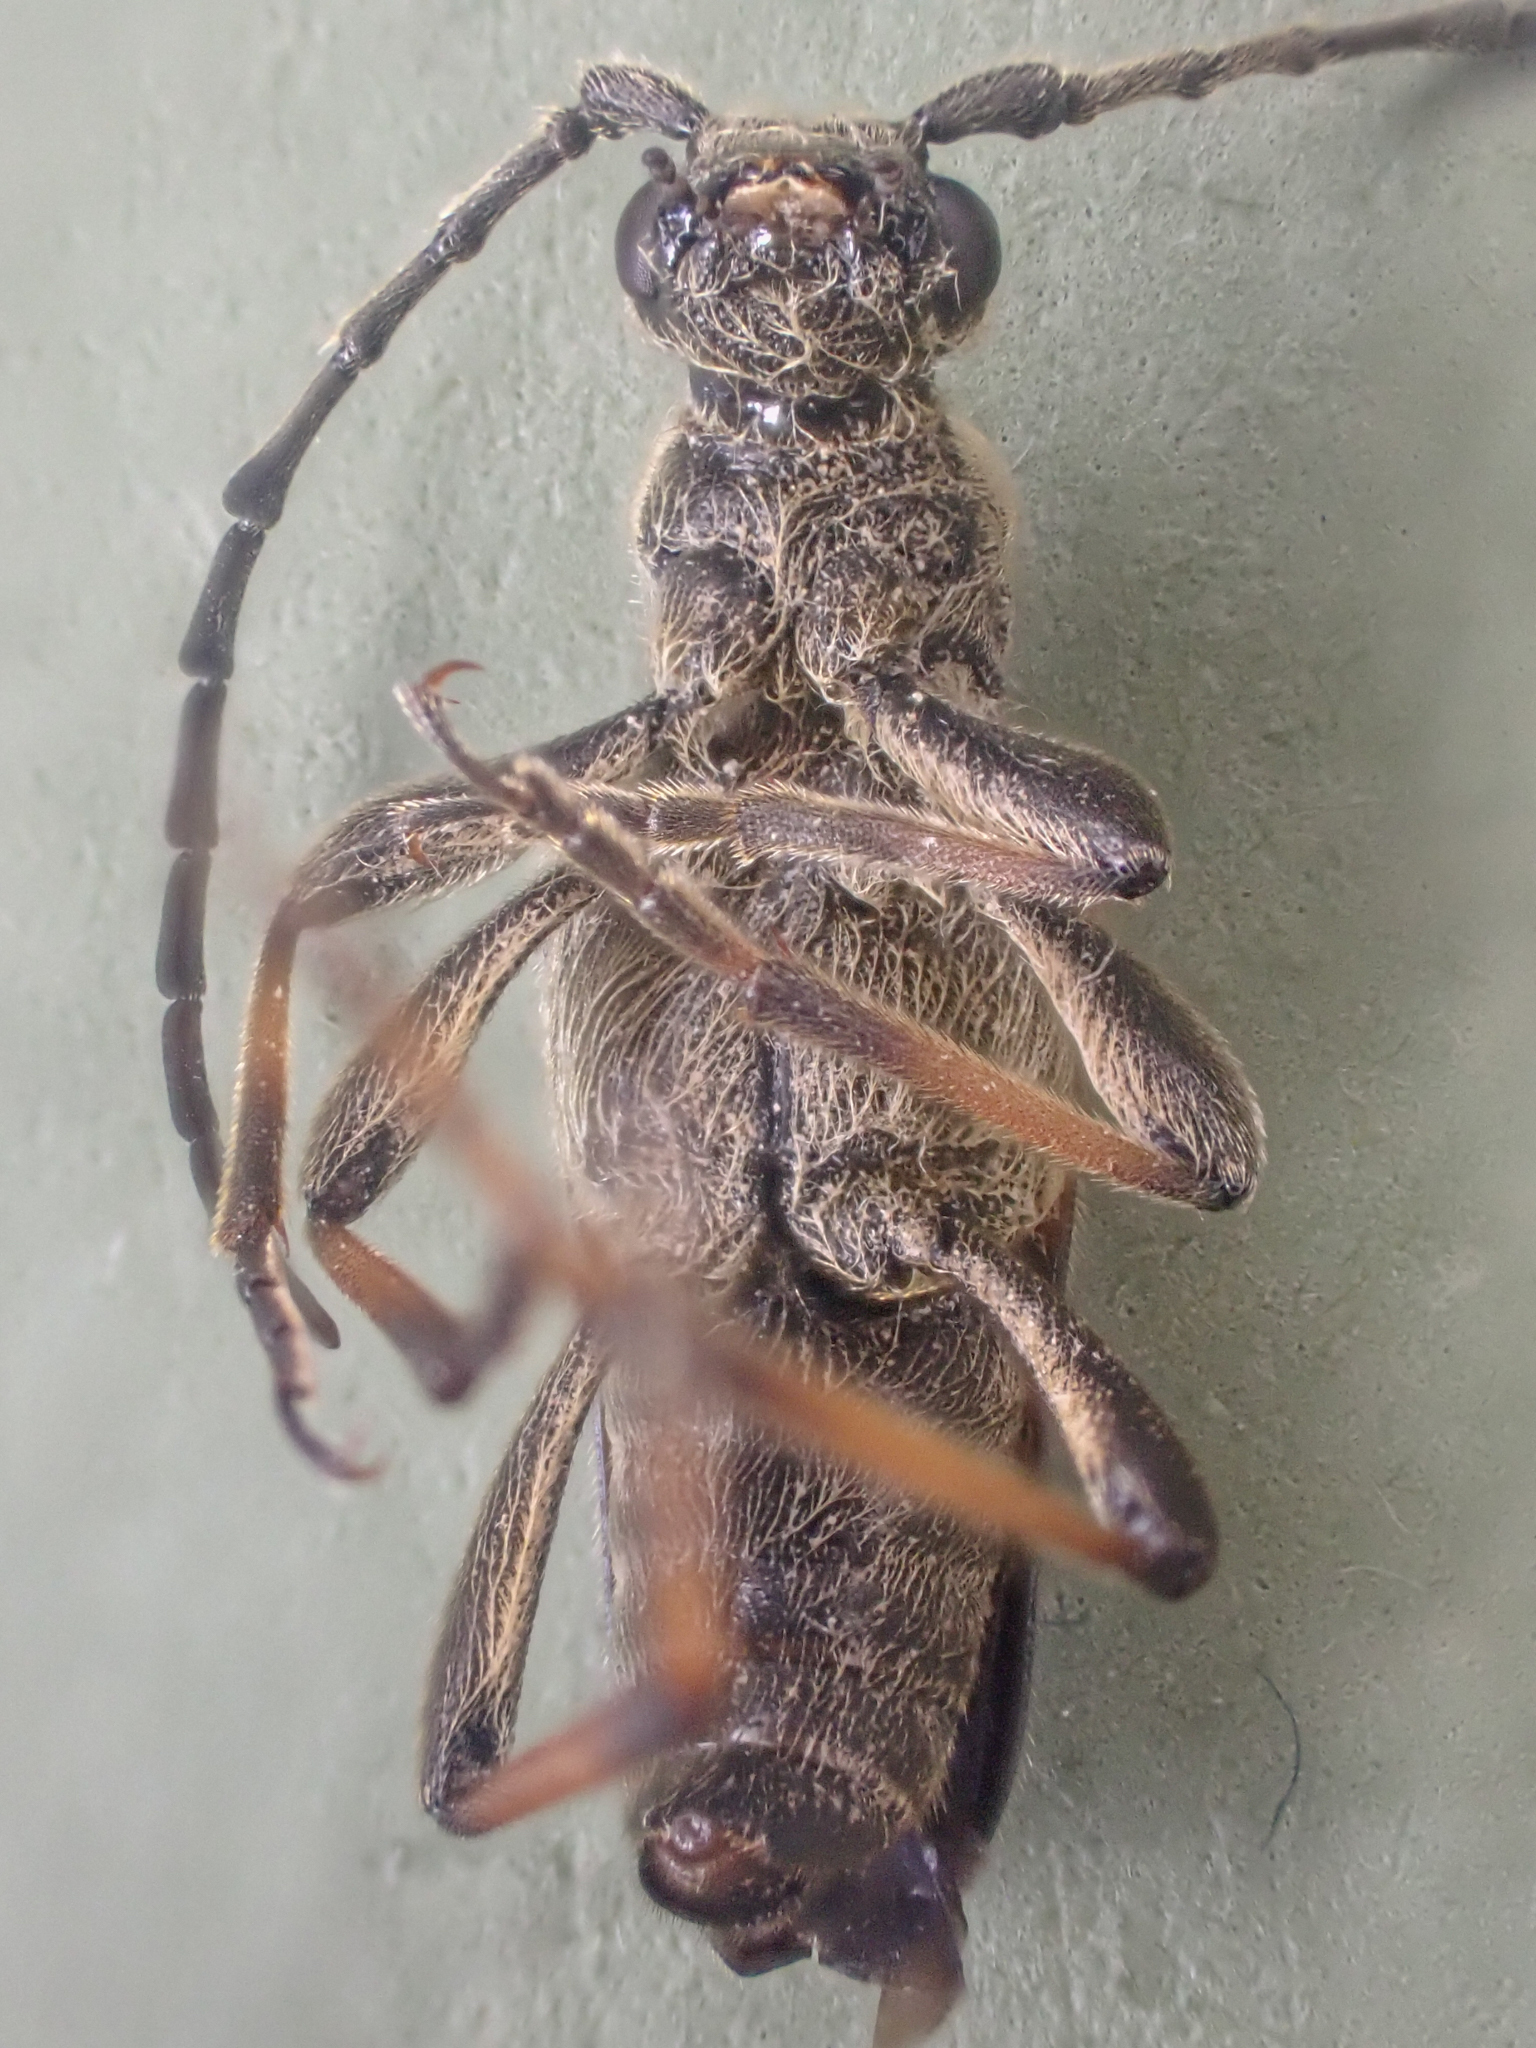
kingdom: Animalia
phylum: Arthropoda
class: Insecta
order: Coleoptera
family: Cerambycidae
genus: Xestoleptura
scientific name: Xestoleptura tibialis
